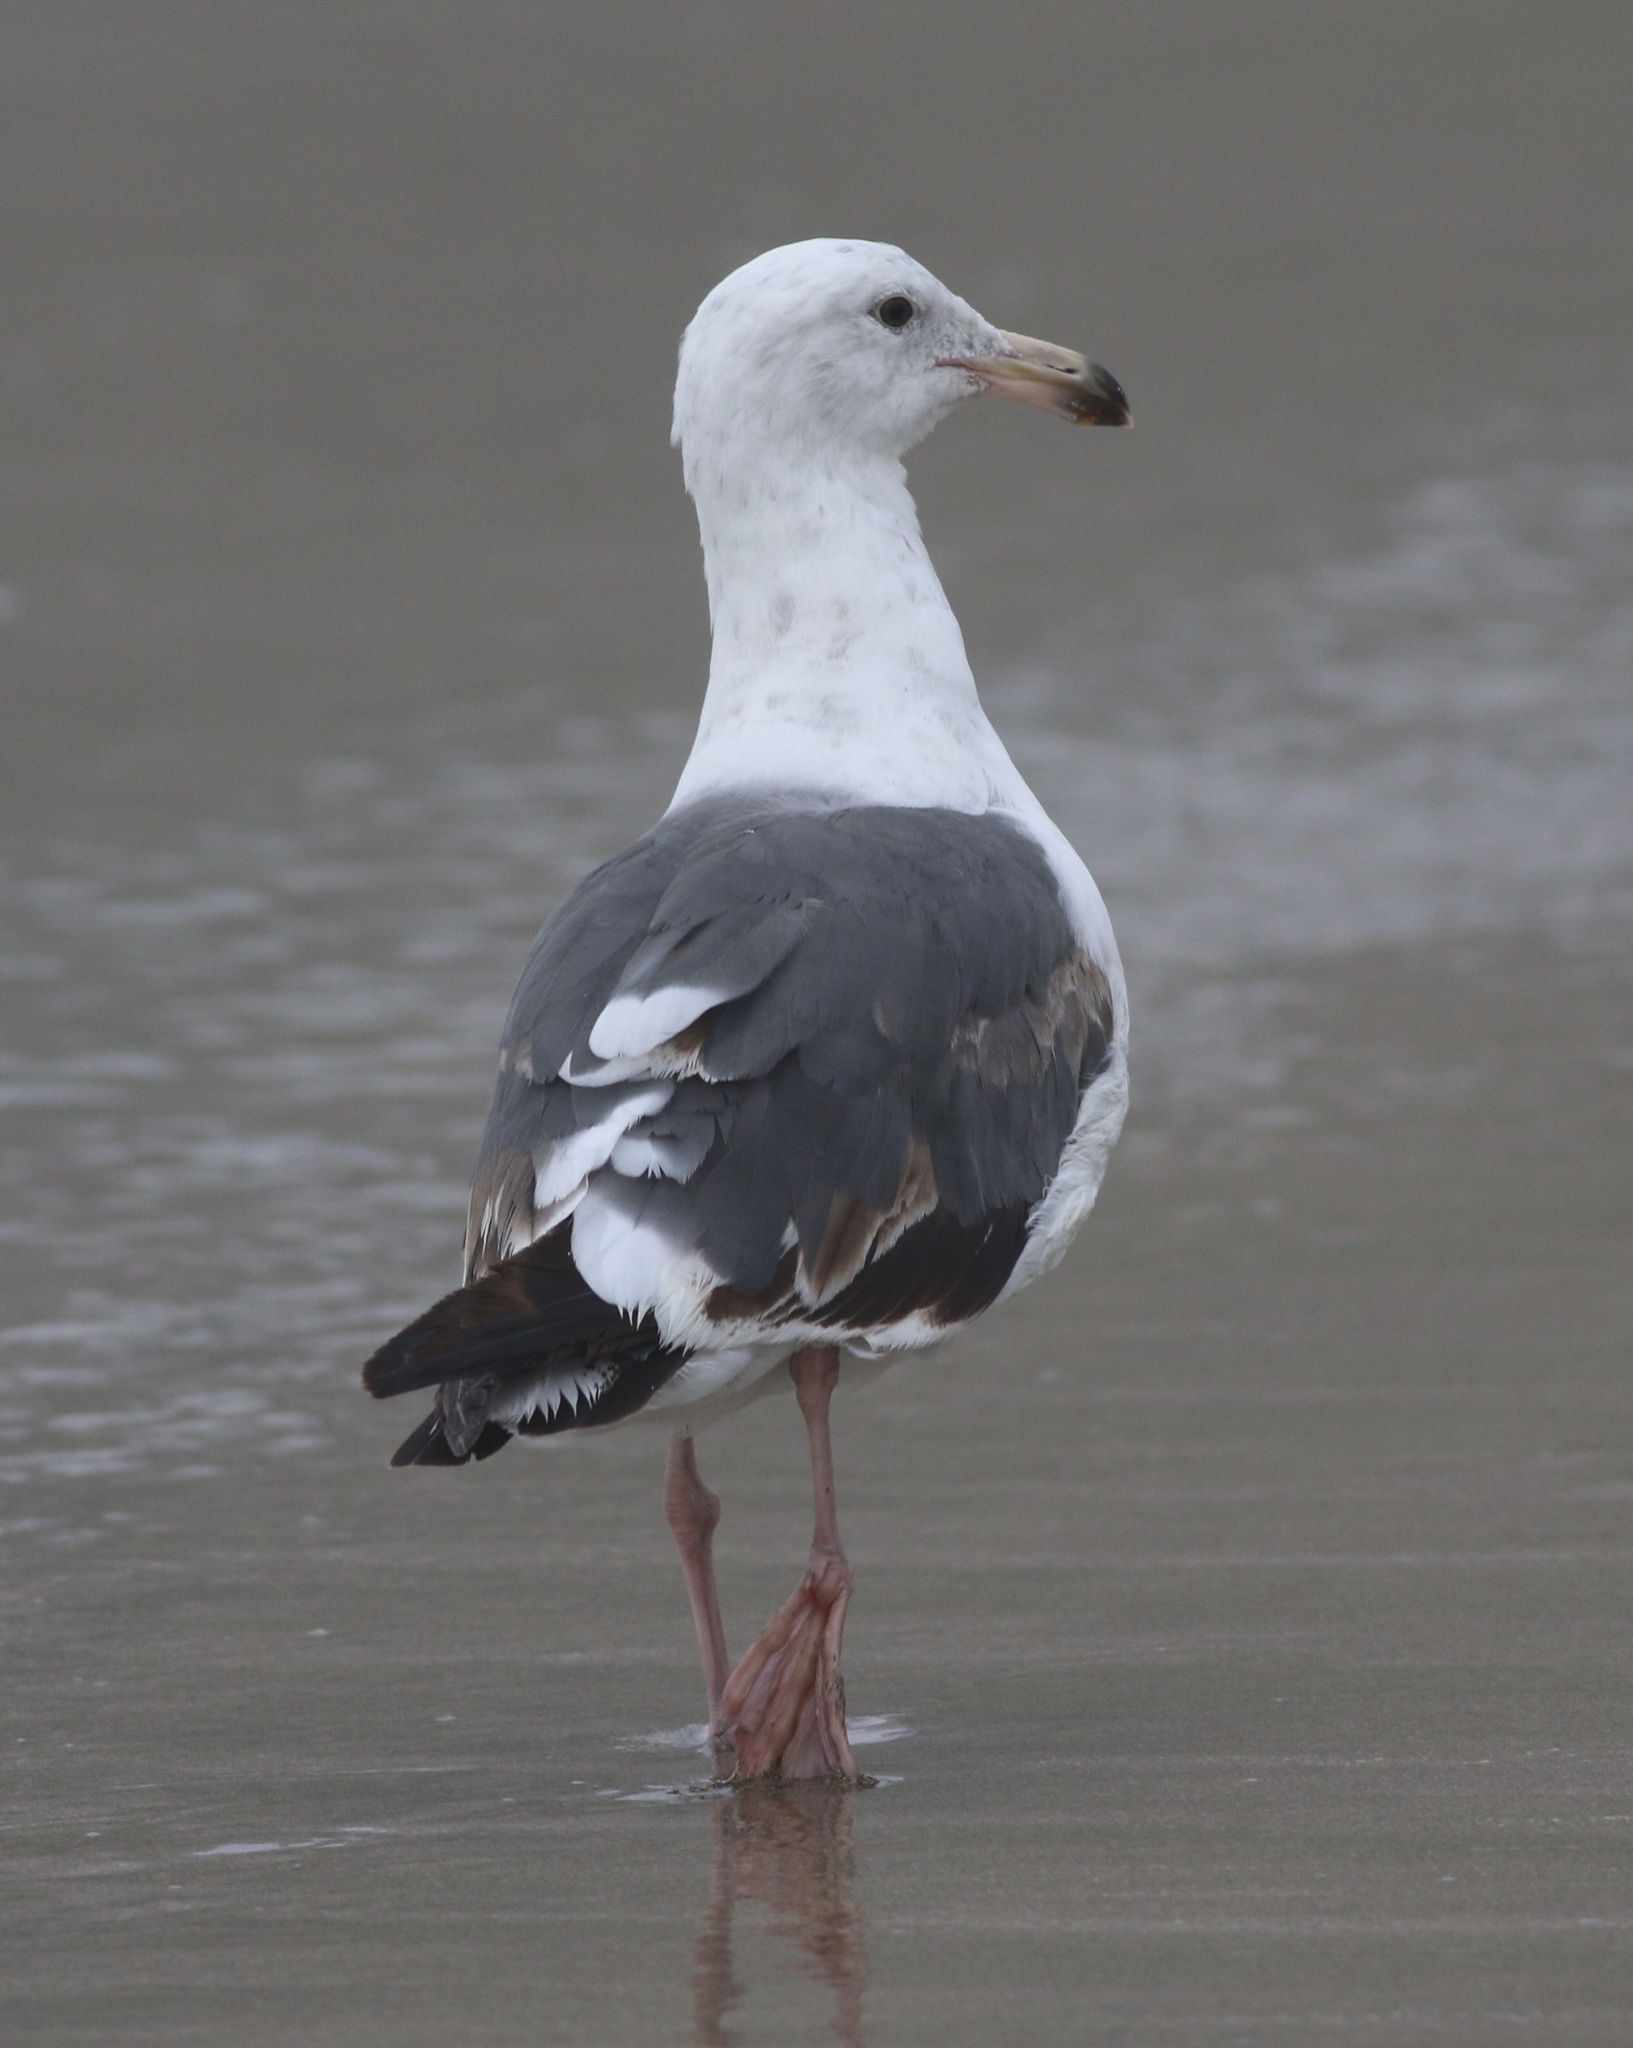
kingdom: Animalia
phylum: Chordata
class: Aves
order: Charadriiformes
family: Laridae
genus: Larus
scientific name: Larus occidentalis
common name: Western gull
